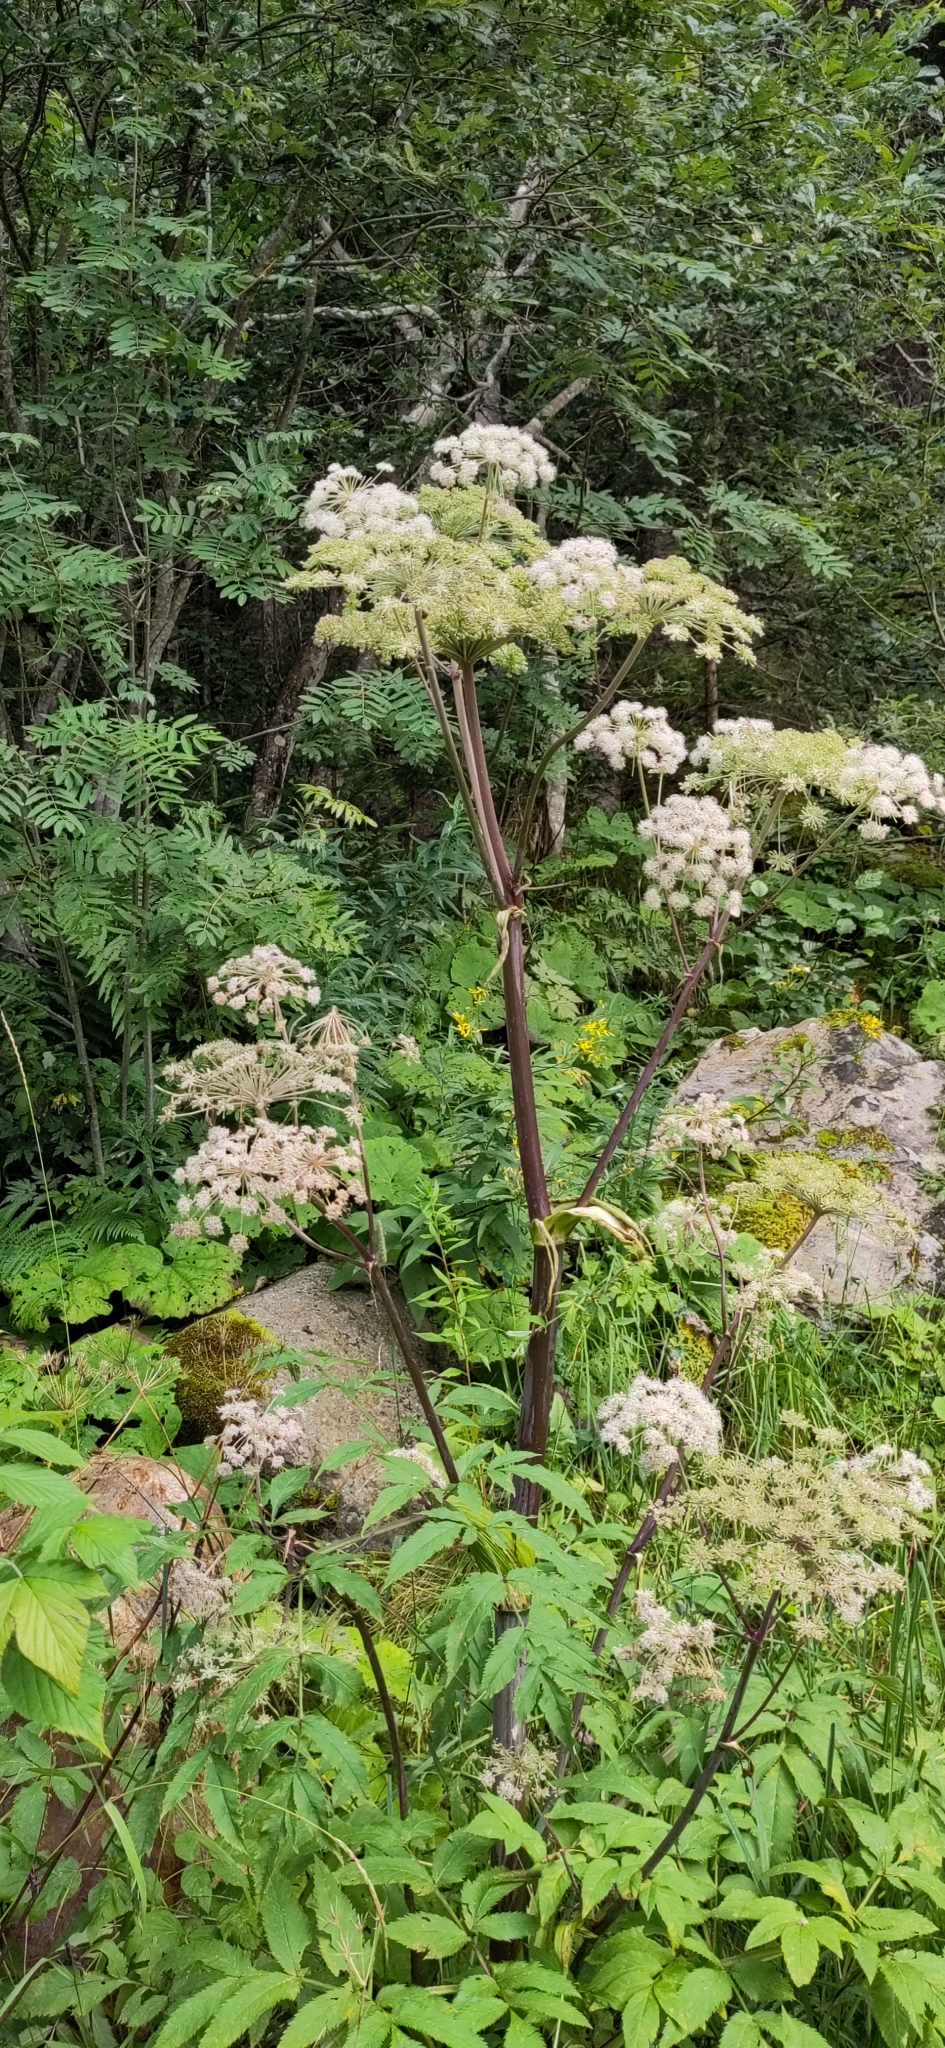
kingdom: Plantae
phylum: Tracheophyta
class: Magnoliopsida
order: Apiales
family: Apiaceae
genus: Angelica
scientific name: Angelica sylvestris
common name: Wild angelica
